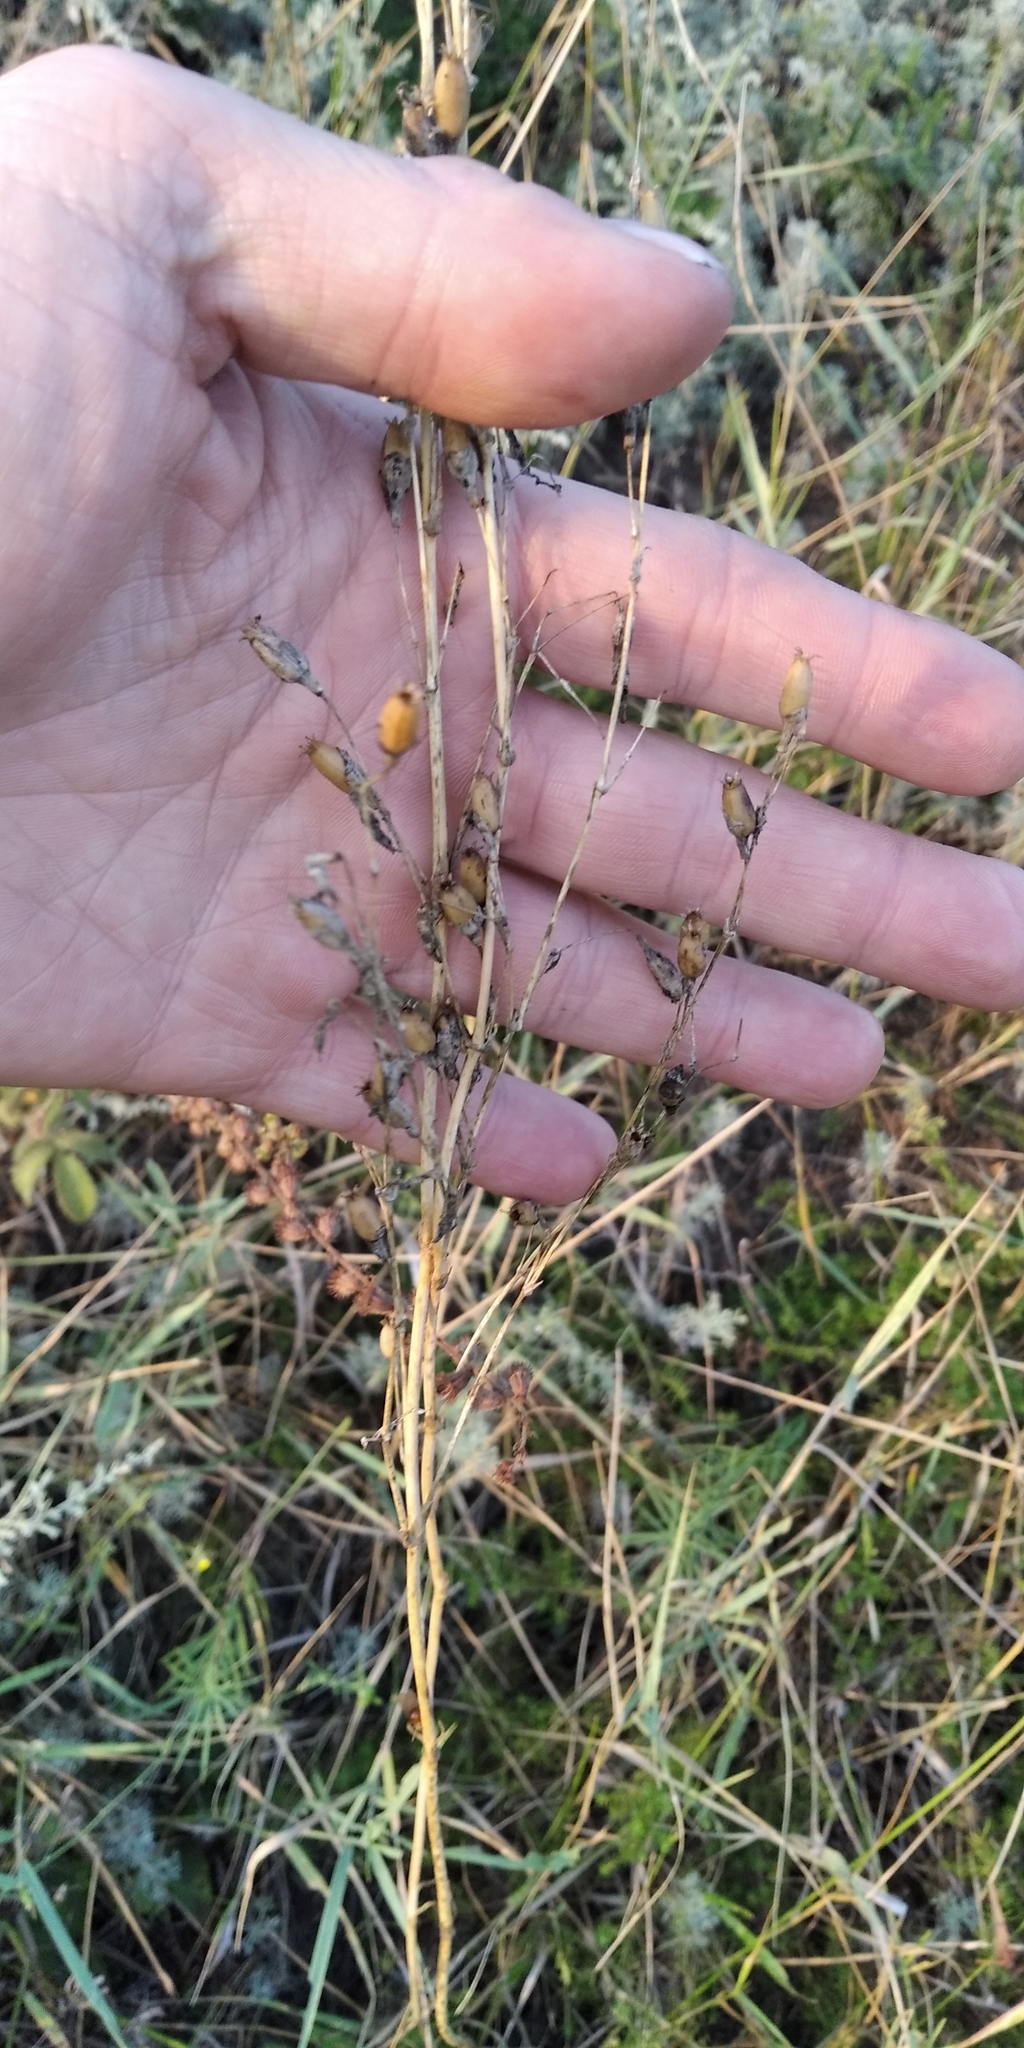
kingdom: Plantae
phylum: Tracheophyta
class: Magnoliopsida
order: Caryophyllales
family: Caryophyllaceae
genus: Silene
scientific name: Silene dichotoma
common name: Forked catchfly
